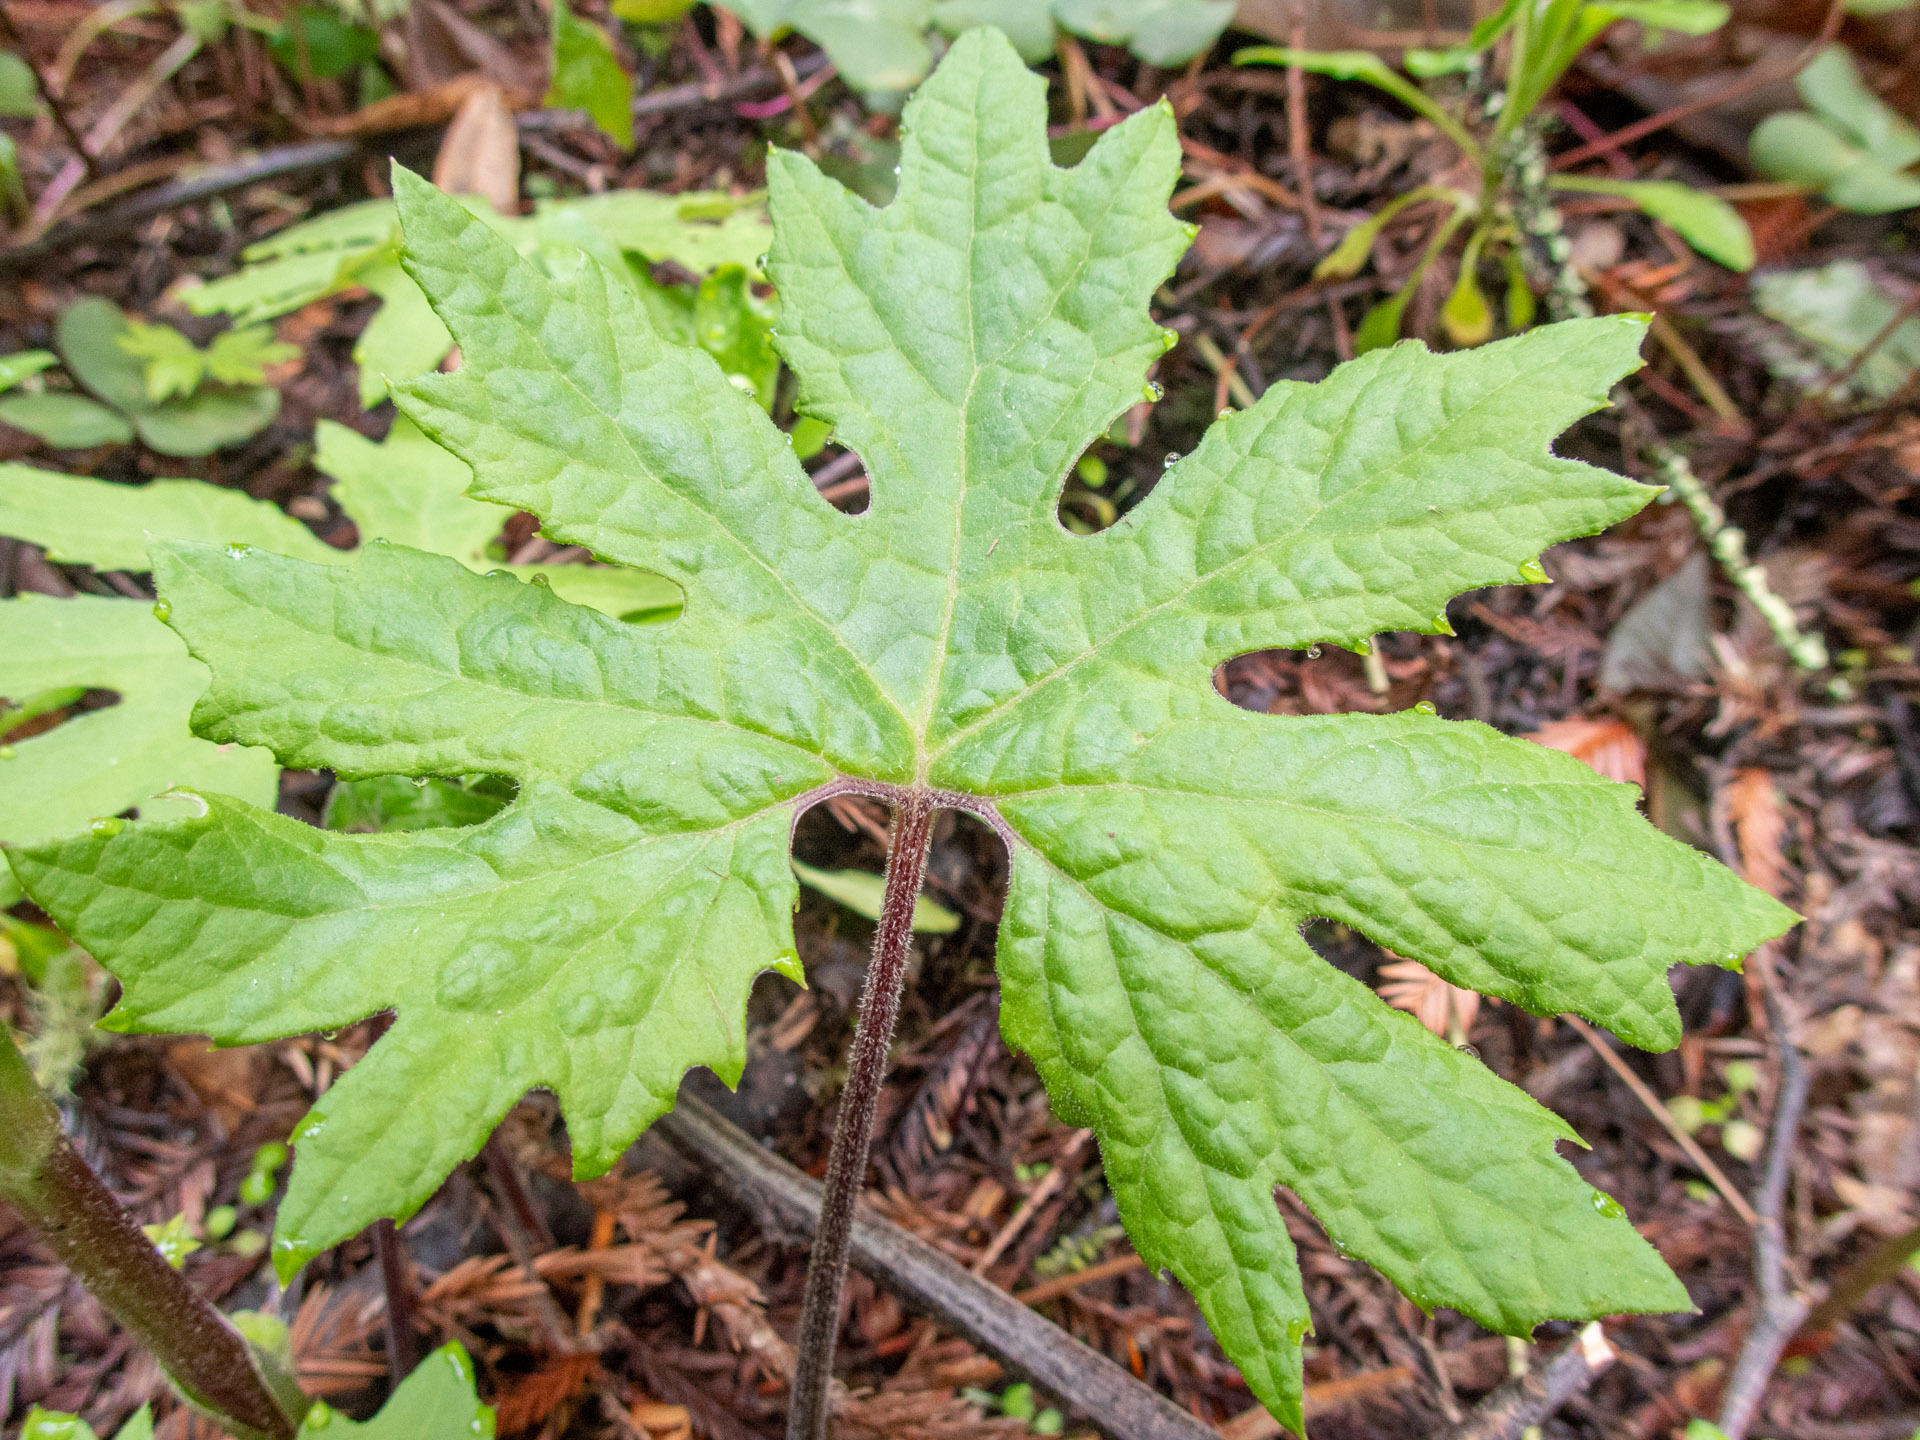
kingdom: Plantae
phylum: Tracheophyta
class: Magnoliopsida
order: Asterales
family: Asteraceae
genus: Petasites
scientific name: Petasites frigidus
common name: Arctic butterbur
